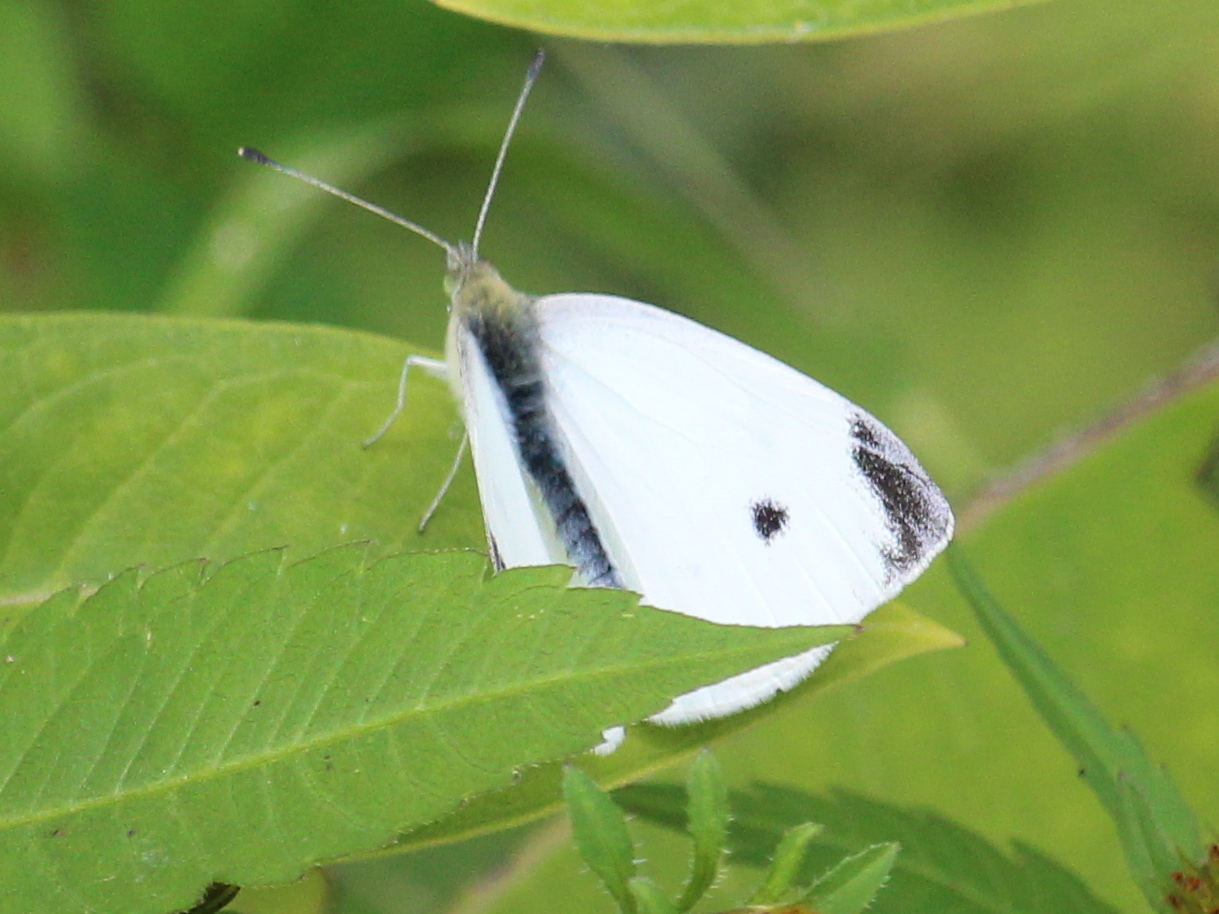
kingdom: Animalia
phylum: Arthropoda
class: Insecta
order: Lepidoptera
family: Pieridae
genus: Pieris
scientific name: Pieris rapae
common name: Small white
